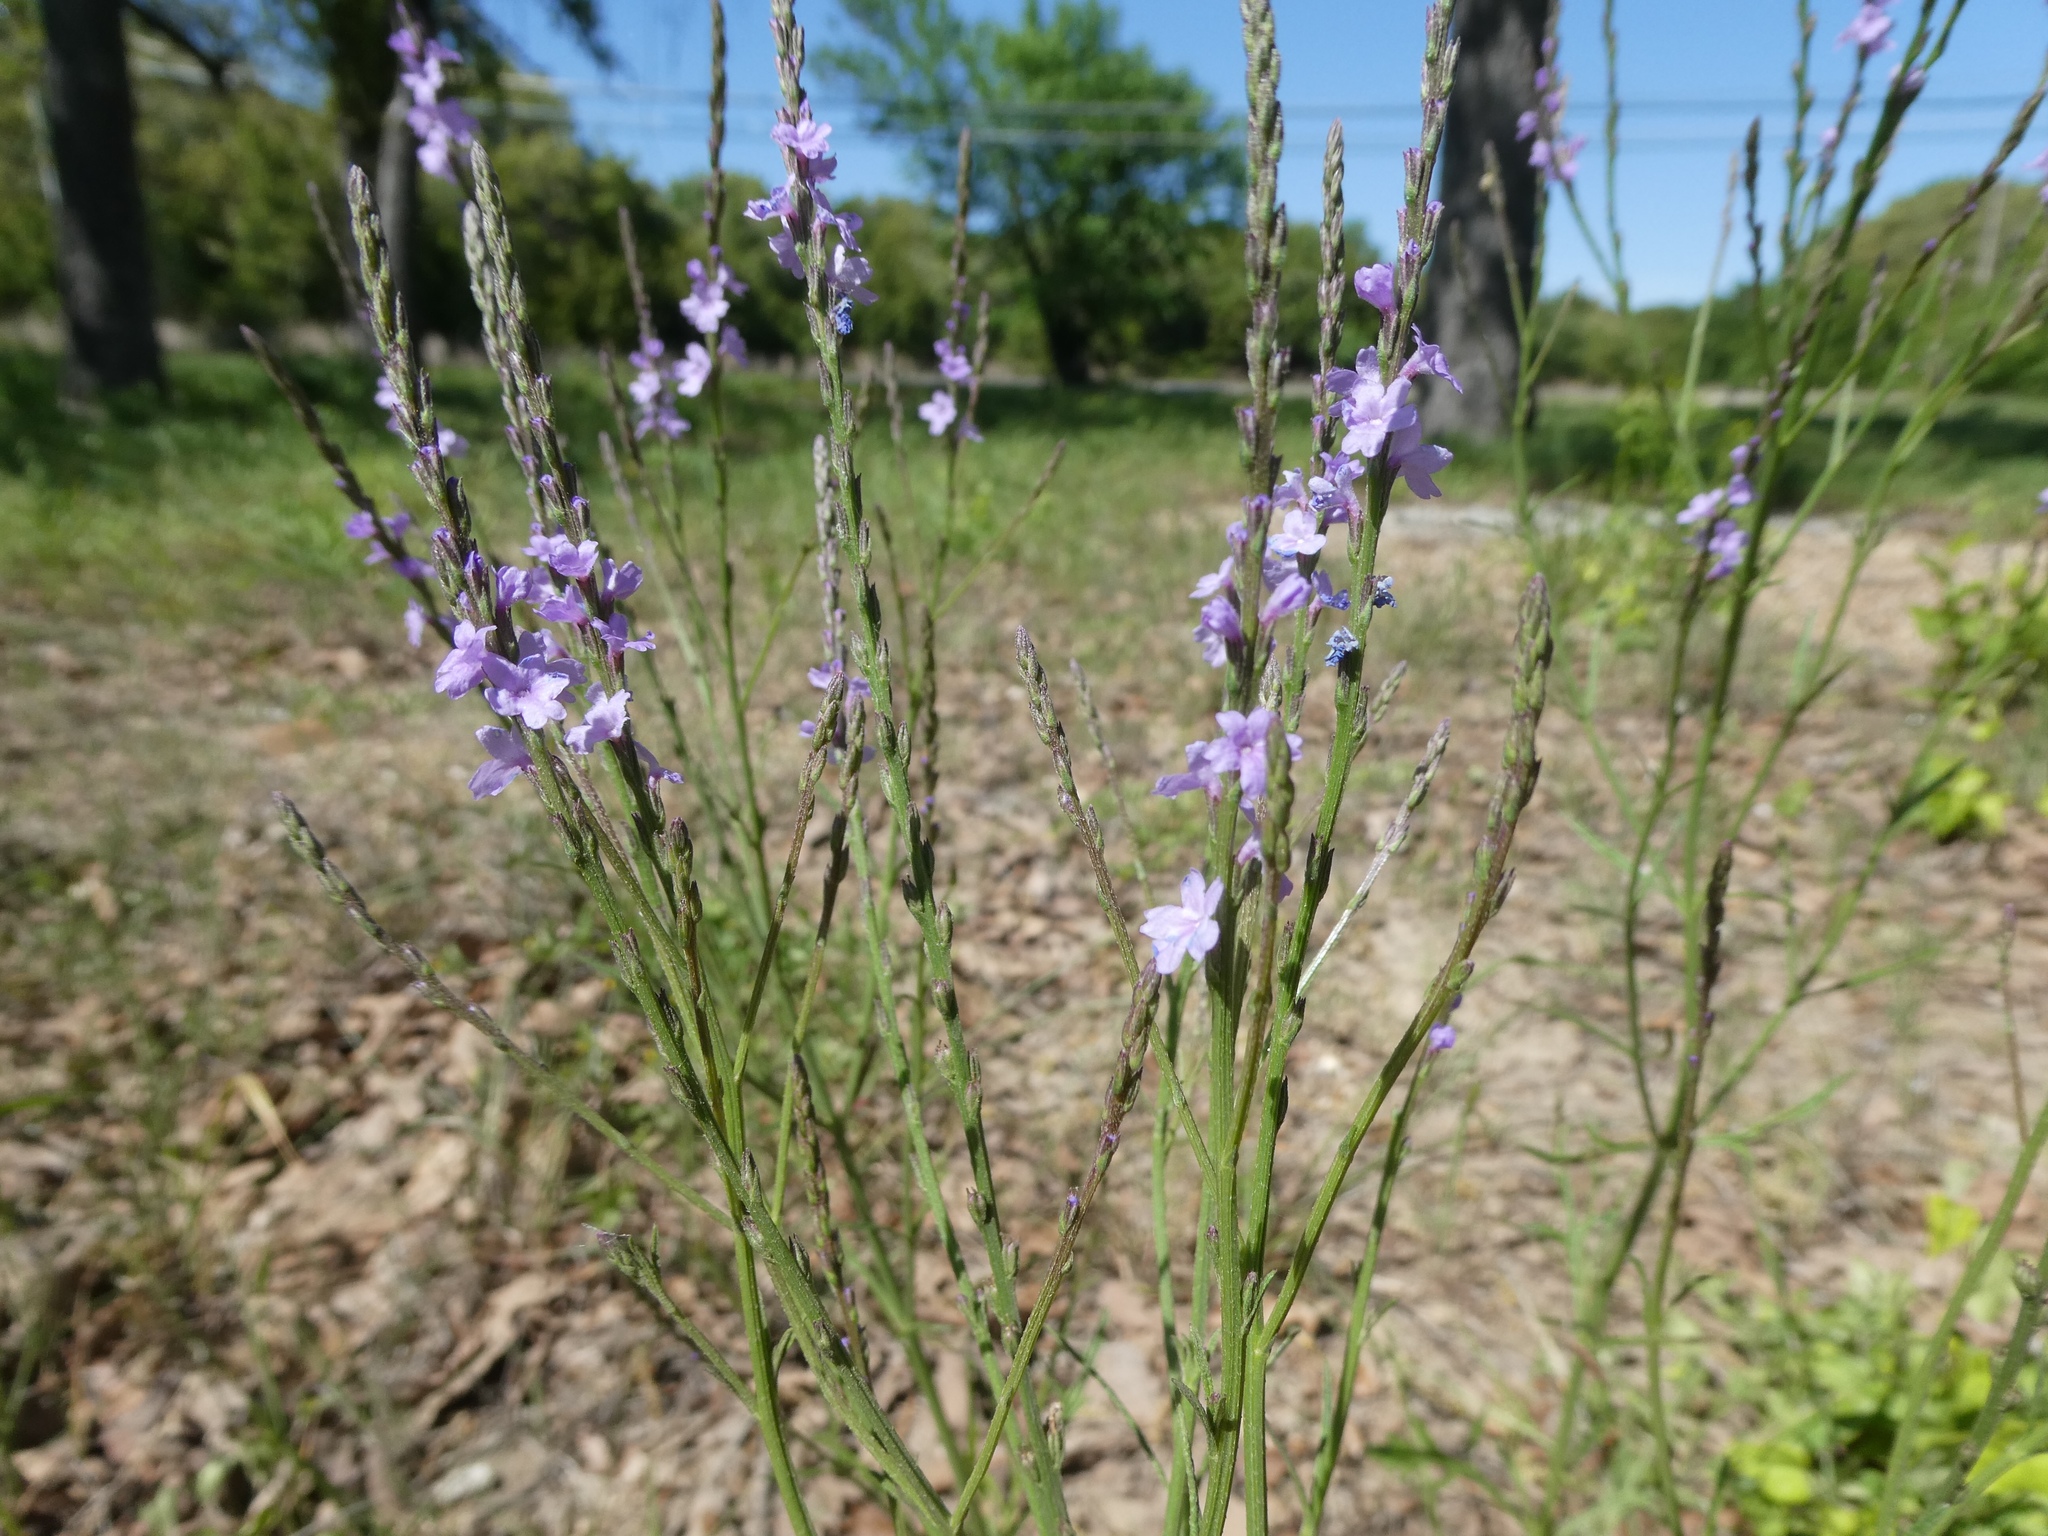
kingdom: Plantae
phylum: Tracheophyta
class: Magnoliopsida
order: Lamiales
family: Verbenaceae
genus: Verbena
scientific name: Verbena halei
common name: Texas vervain
